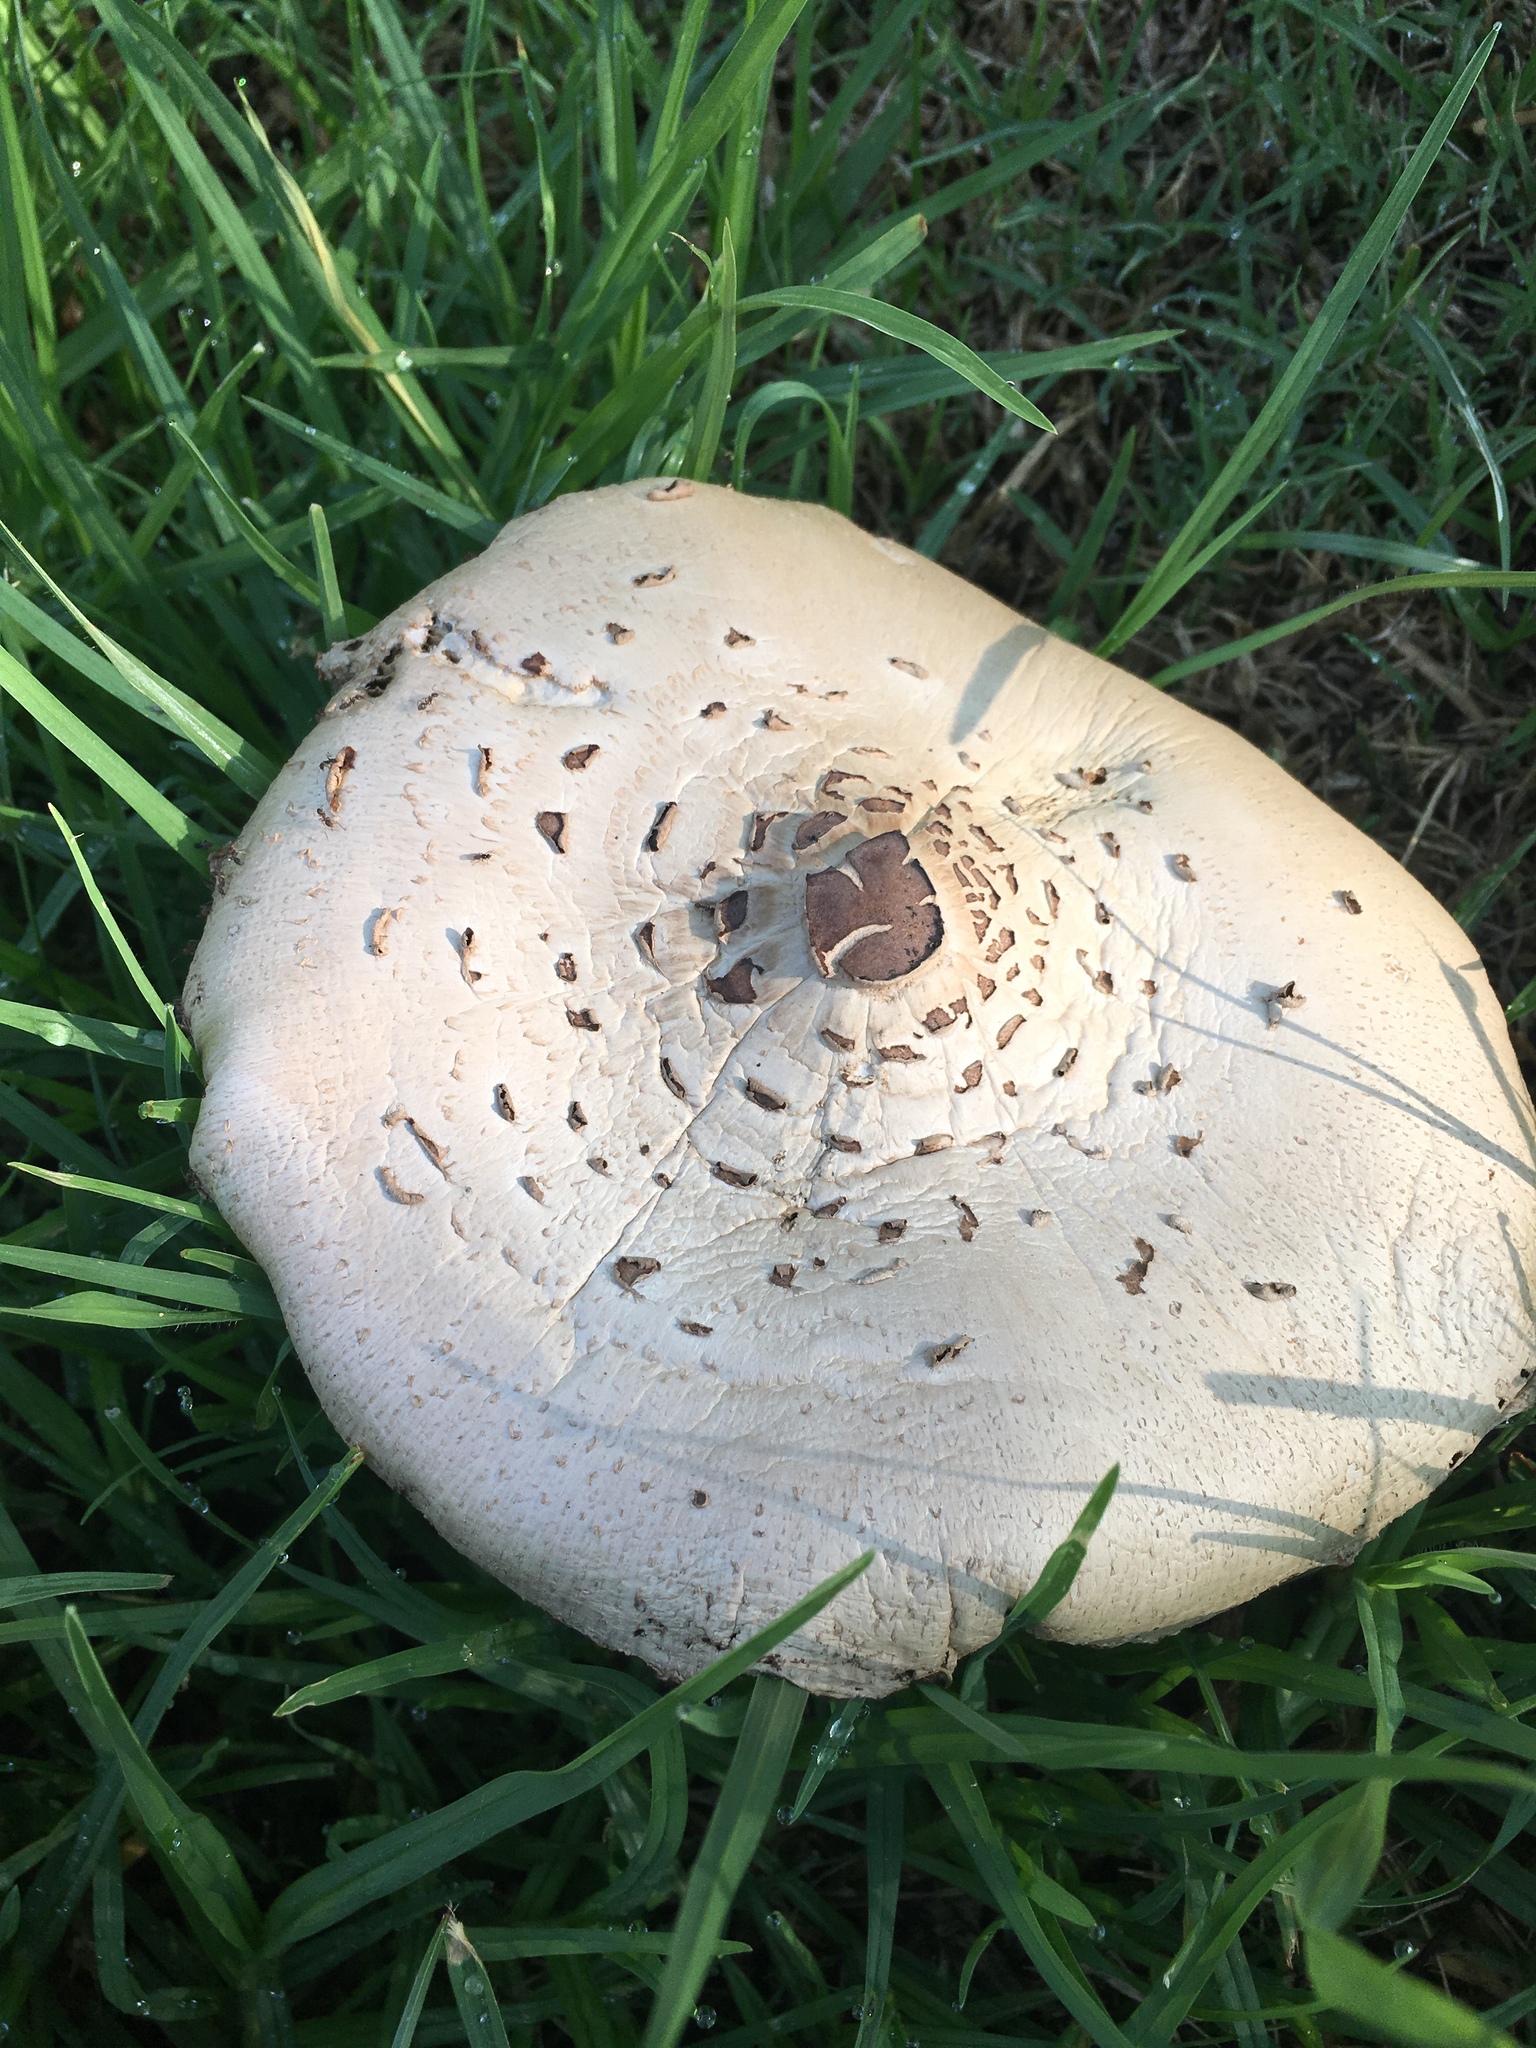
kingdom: Fungi
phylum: Basidiomycota
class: Agaricomycetes
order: Agaricales
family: Agaricaceae
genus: Chlorophyllum
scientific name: Chlorophyllum molybdites
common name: False parasol
